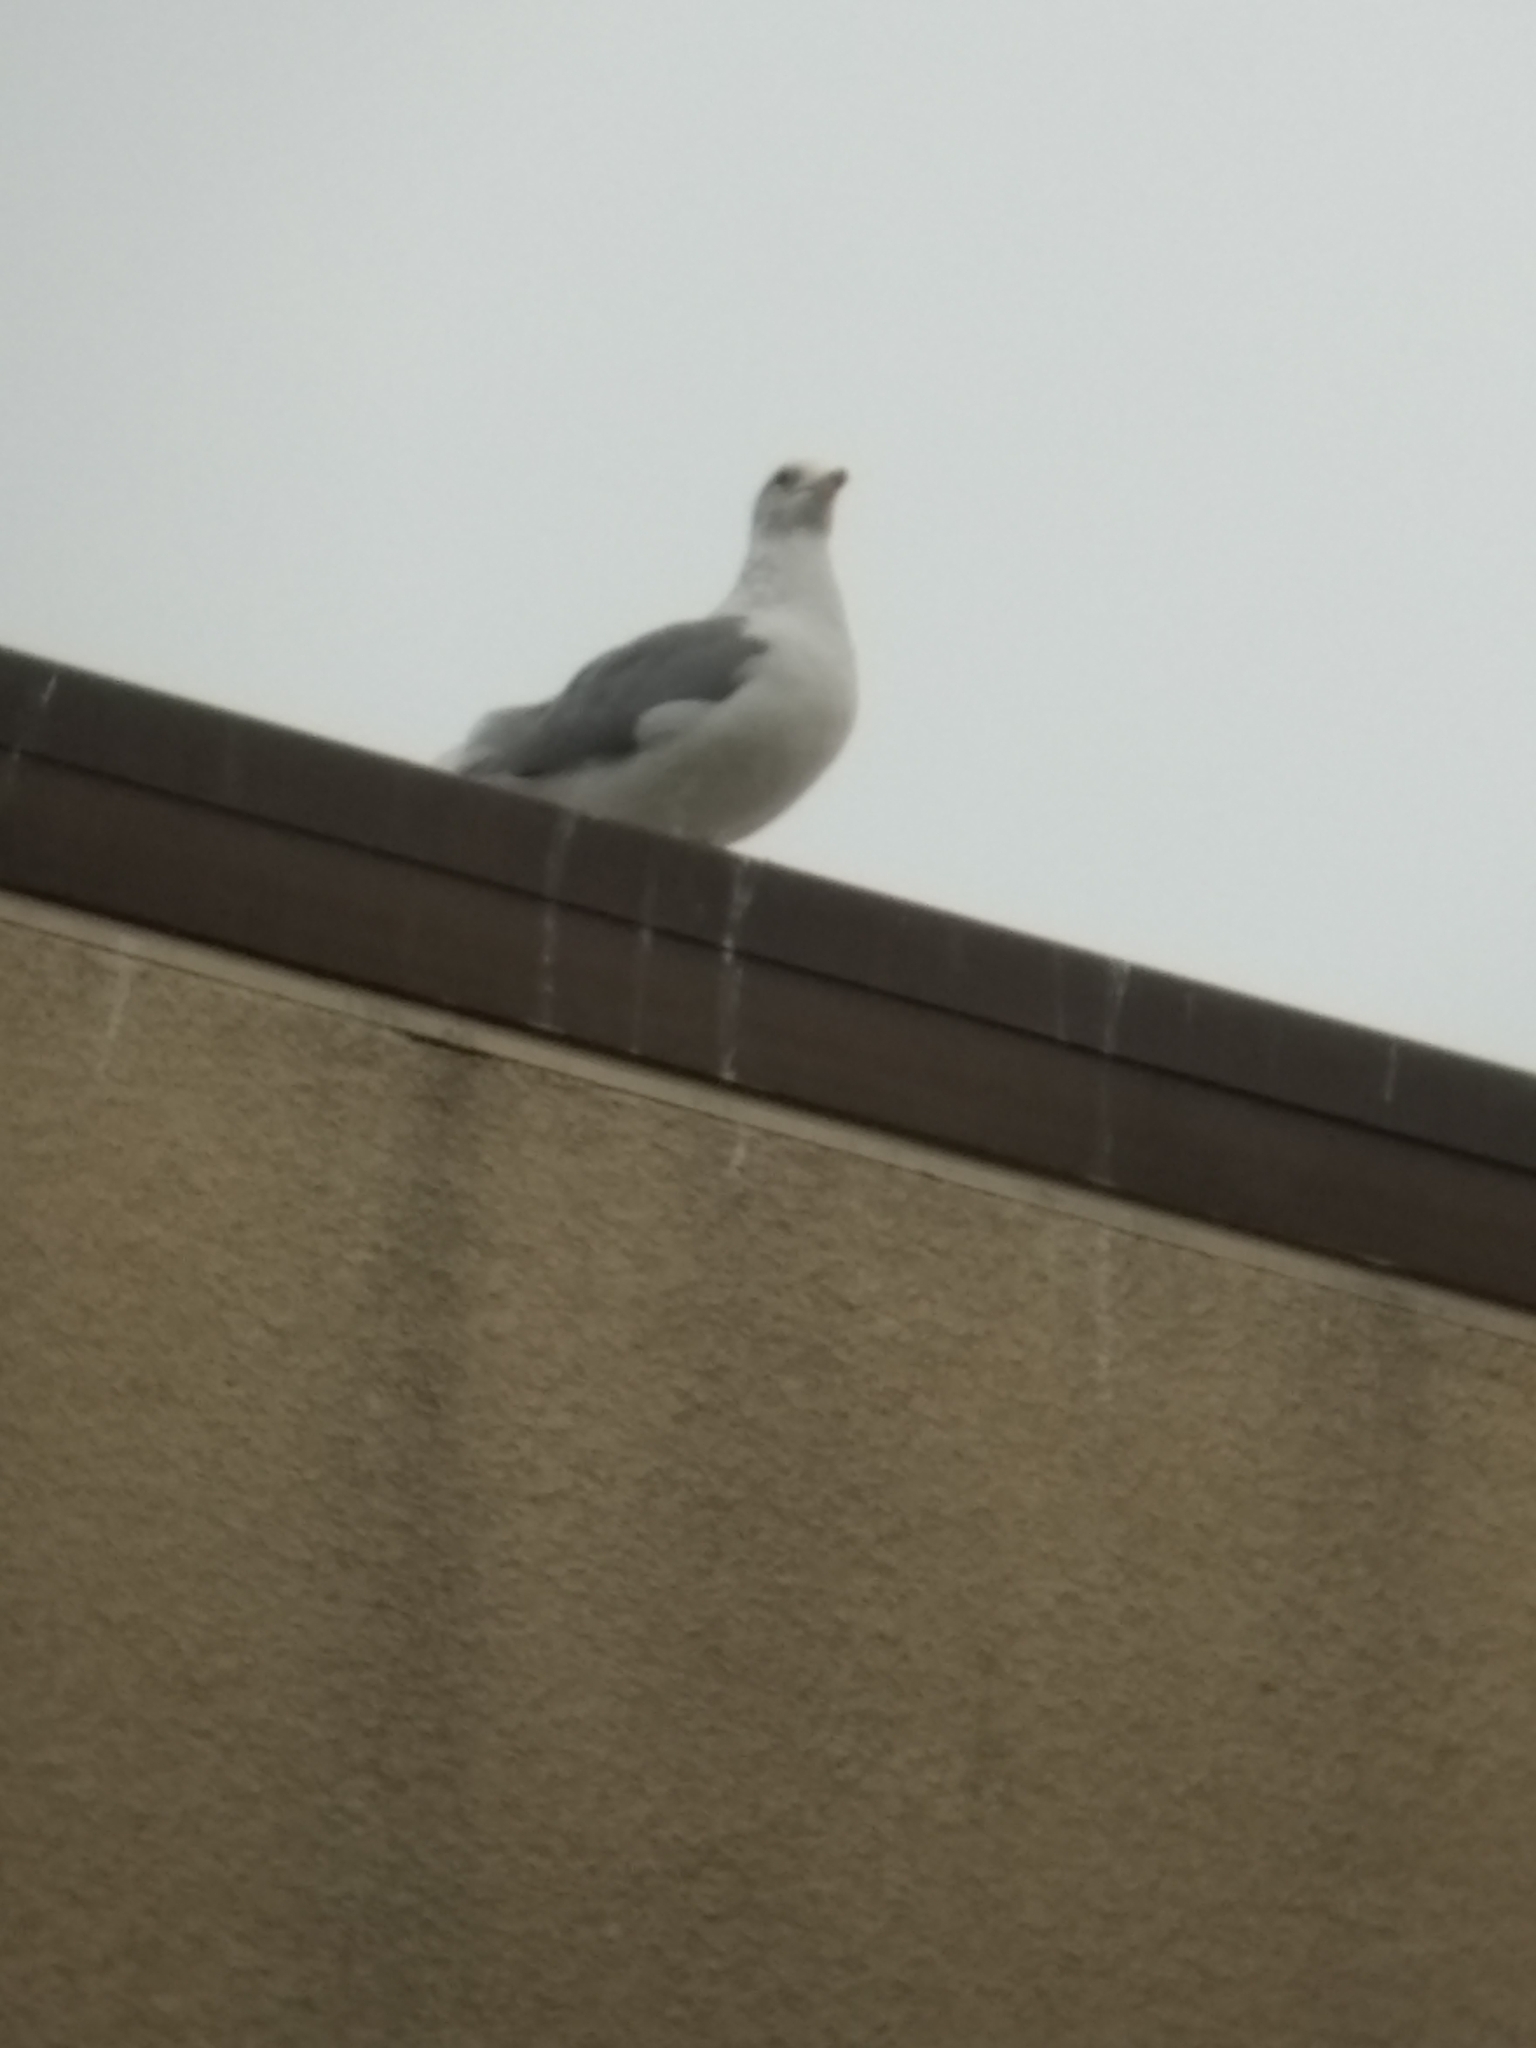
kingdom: Animalia
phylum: Chordata
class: Aves
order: Charadriiformes
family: Laridae
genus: Larus
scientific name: Larus californicus
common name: California gull
